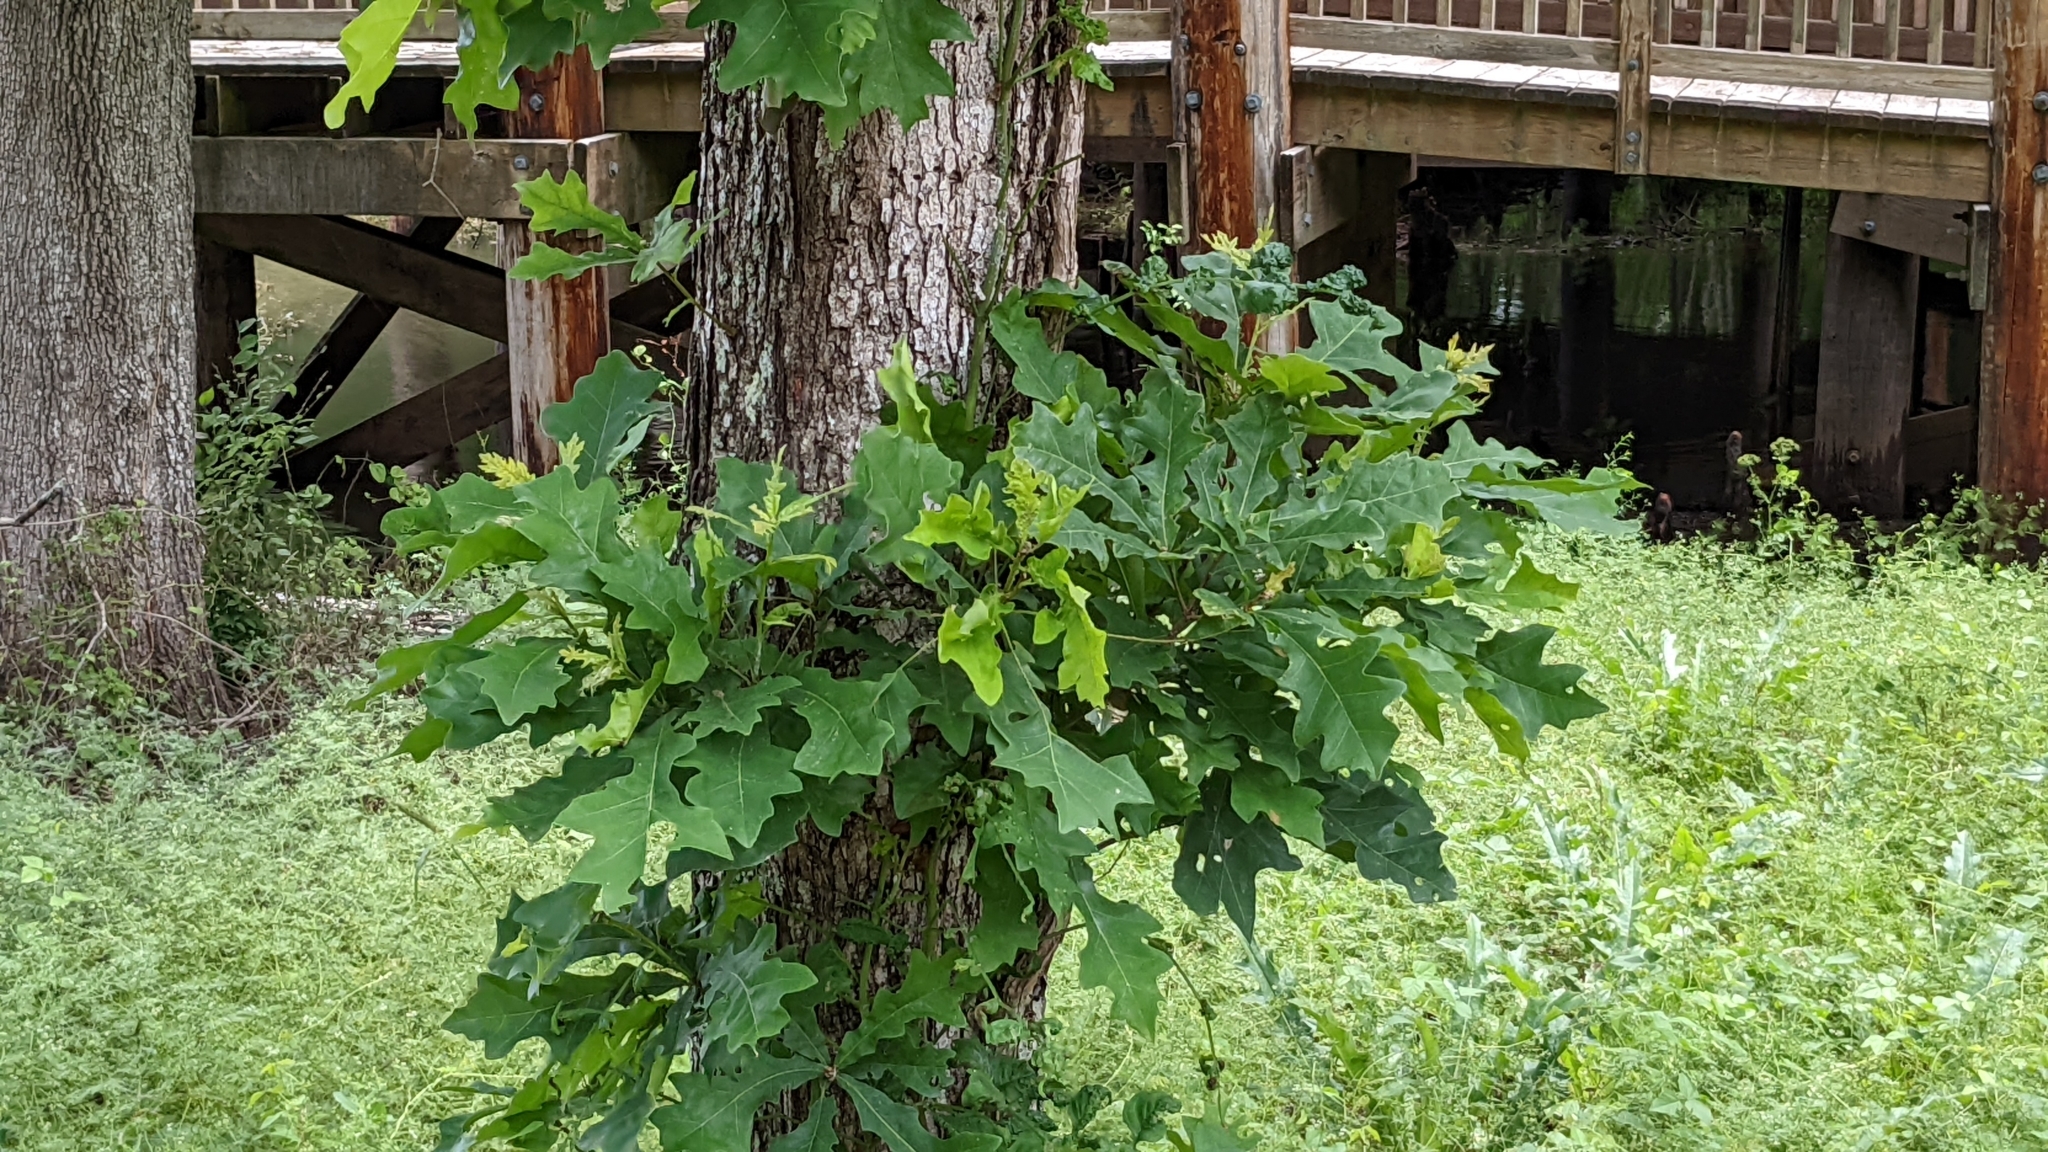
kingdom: Plantae
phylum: Tracheophyta
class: Magnoliopsida
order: Fagales
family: Fagaceae
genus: Quercus
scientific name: Quercus lyrata
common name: Overcup oak
